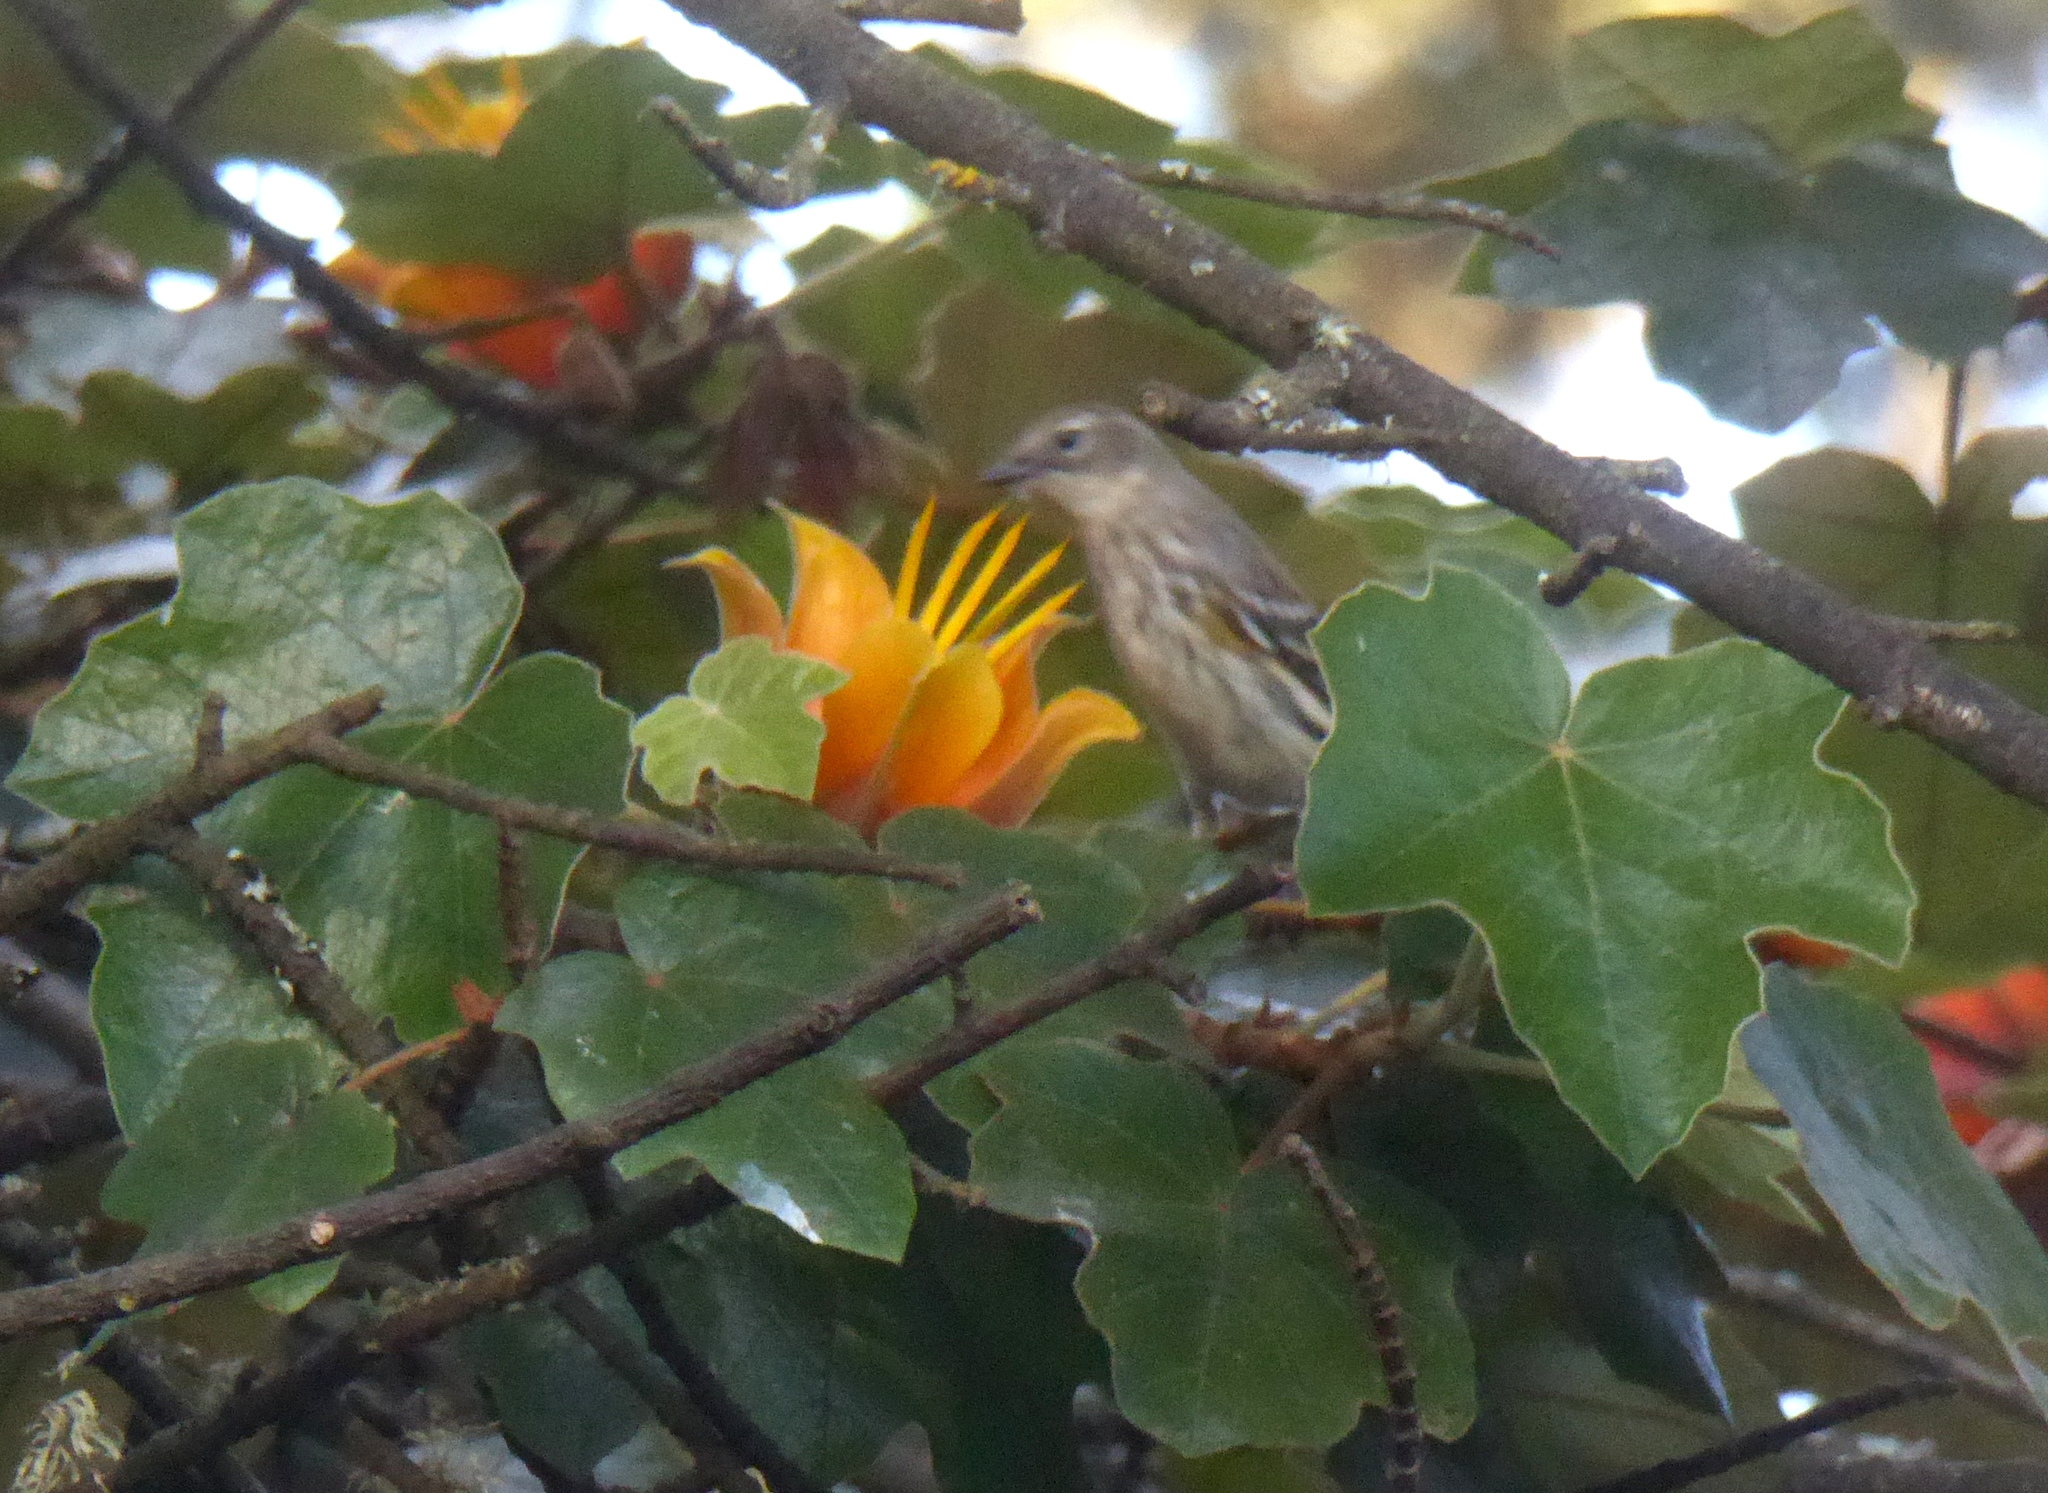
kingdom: Animalia
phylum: Chordata
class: Aves
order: Passeriformes
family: Parulidae
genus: Setophaga
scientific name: Setophaga coronata
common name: Myrtle warbler
